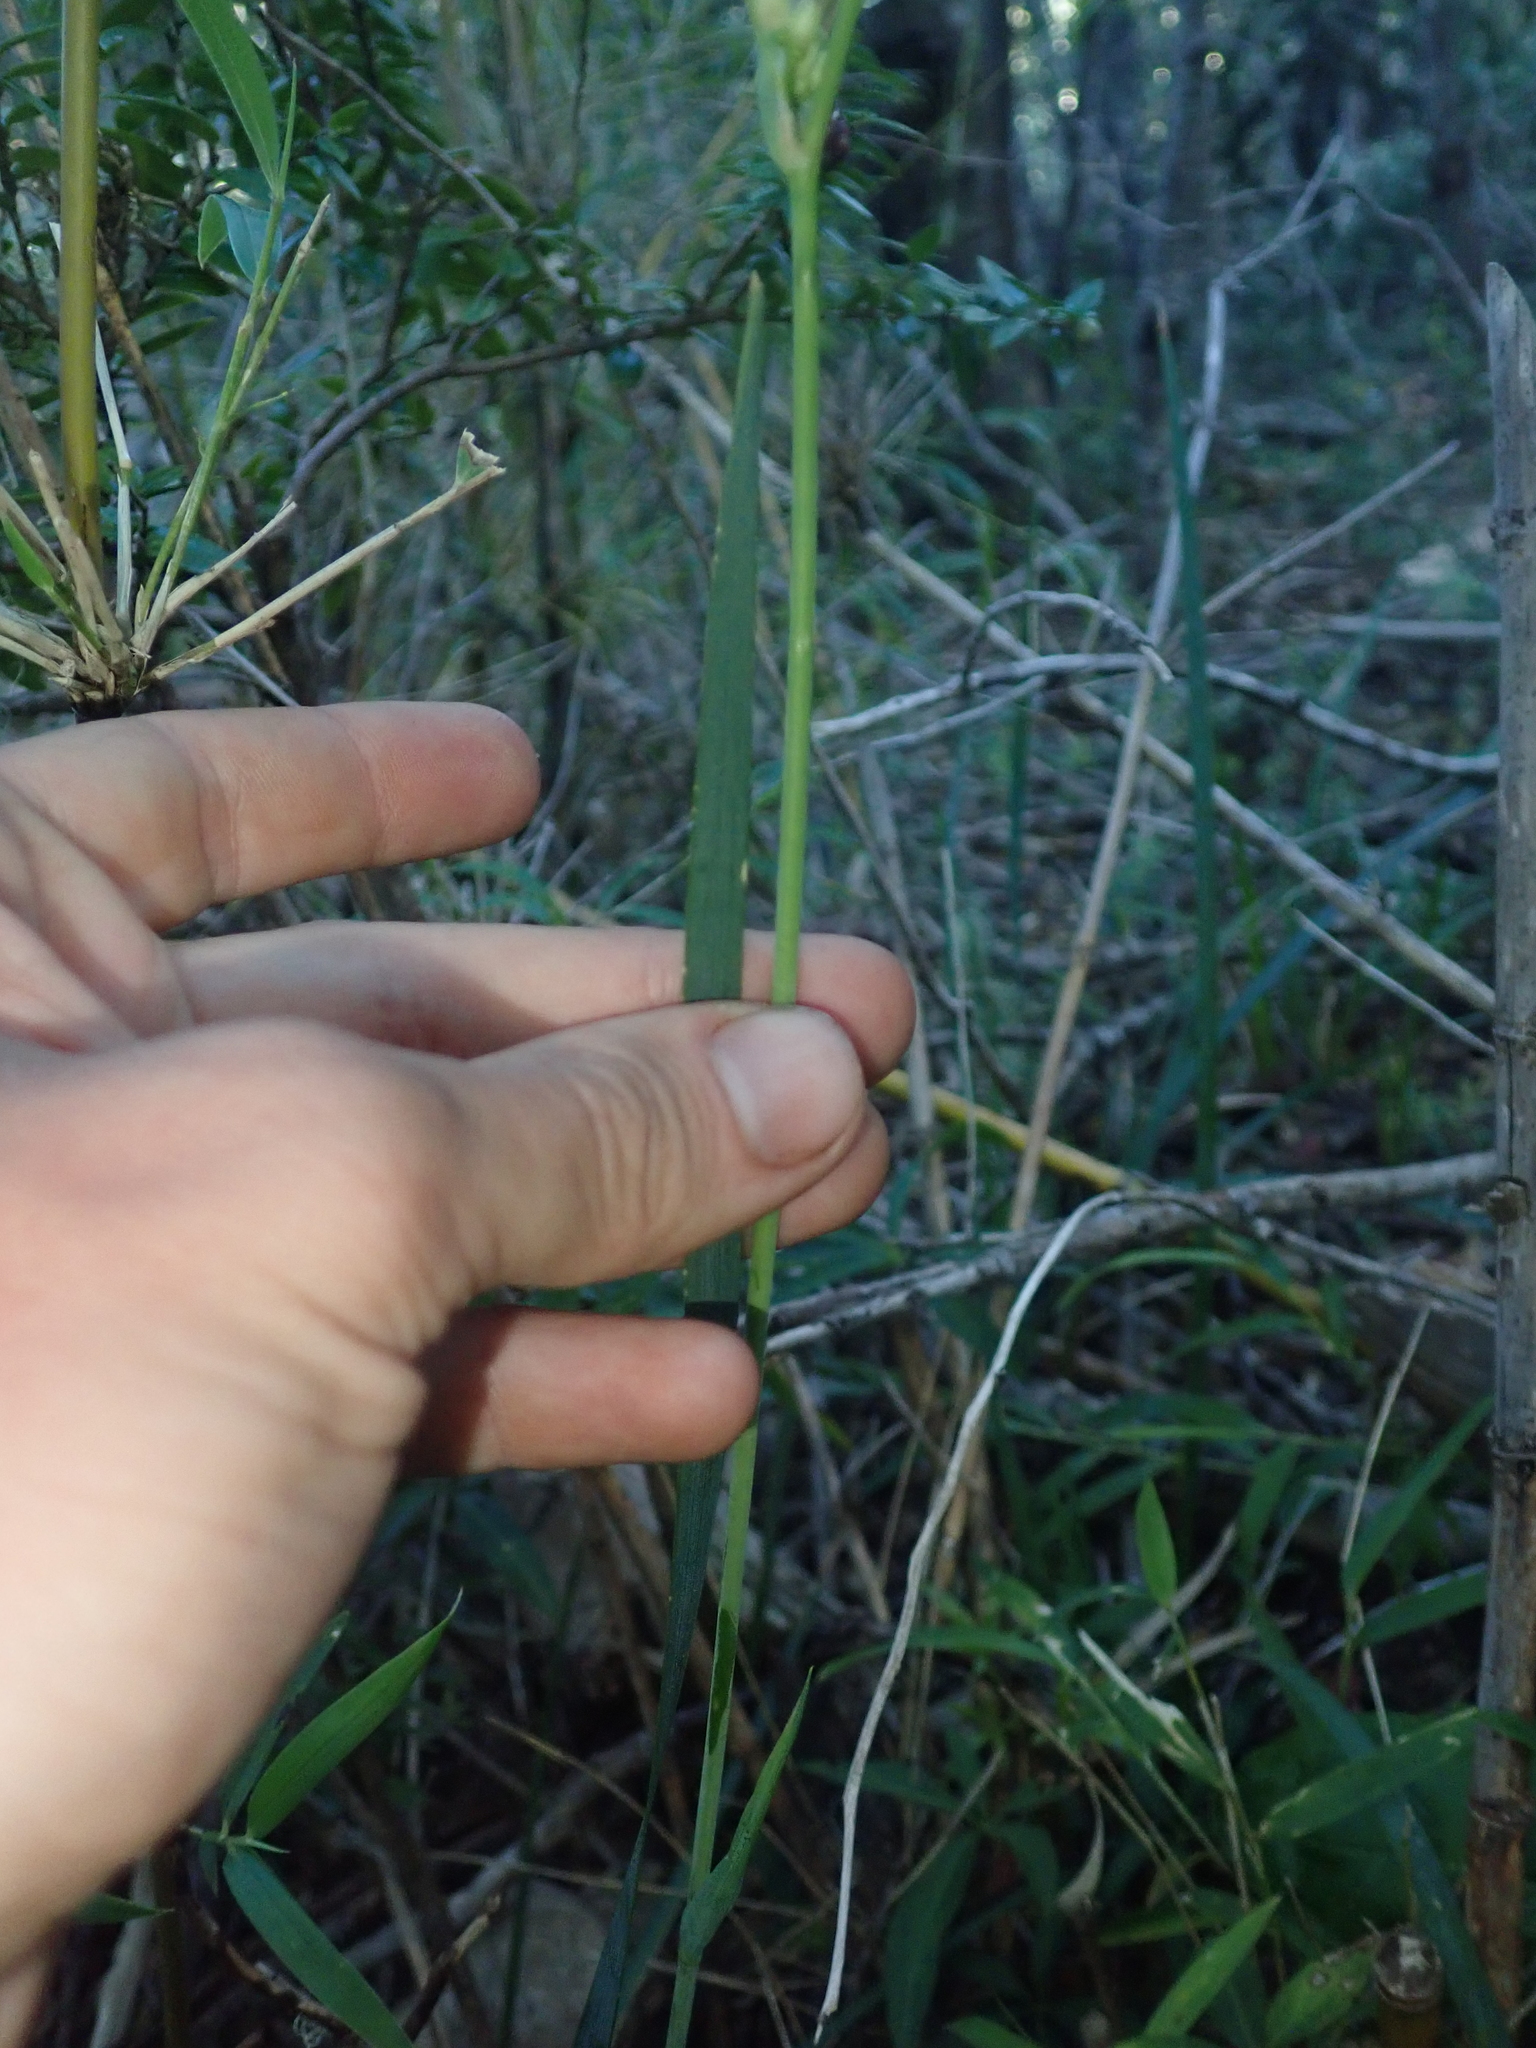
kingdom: Plantae
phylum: Tracheophyta
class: Liliopsida
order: Asparagales
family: Iridaceae
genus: Libertia
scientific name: Libertia tricocca
